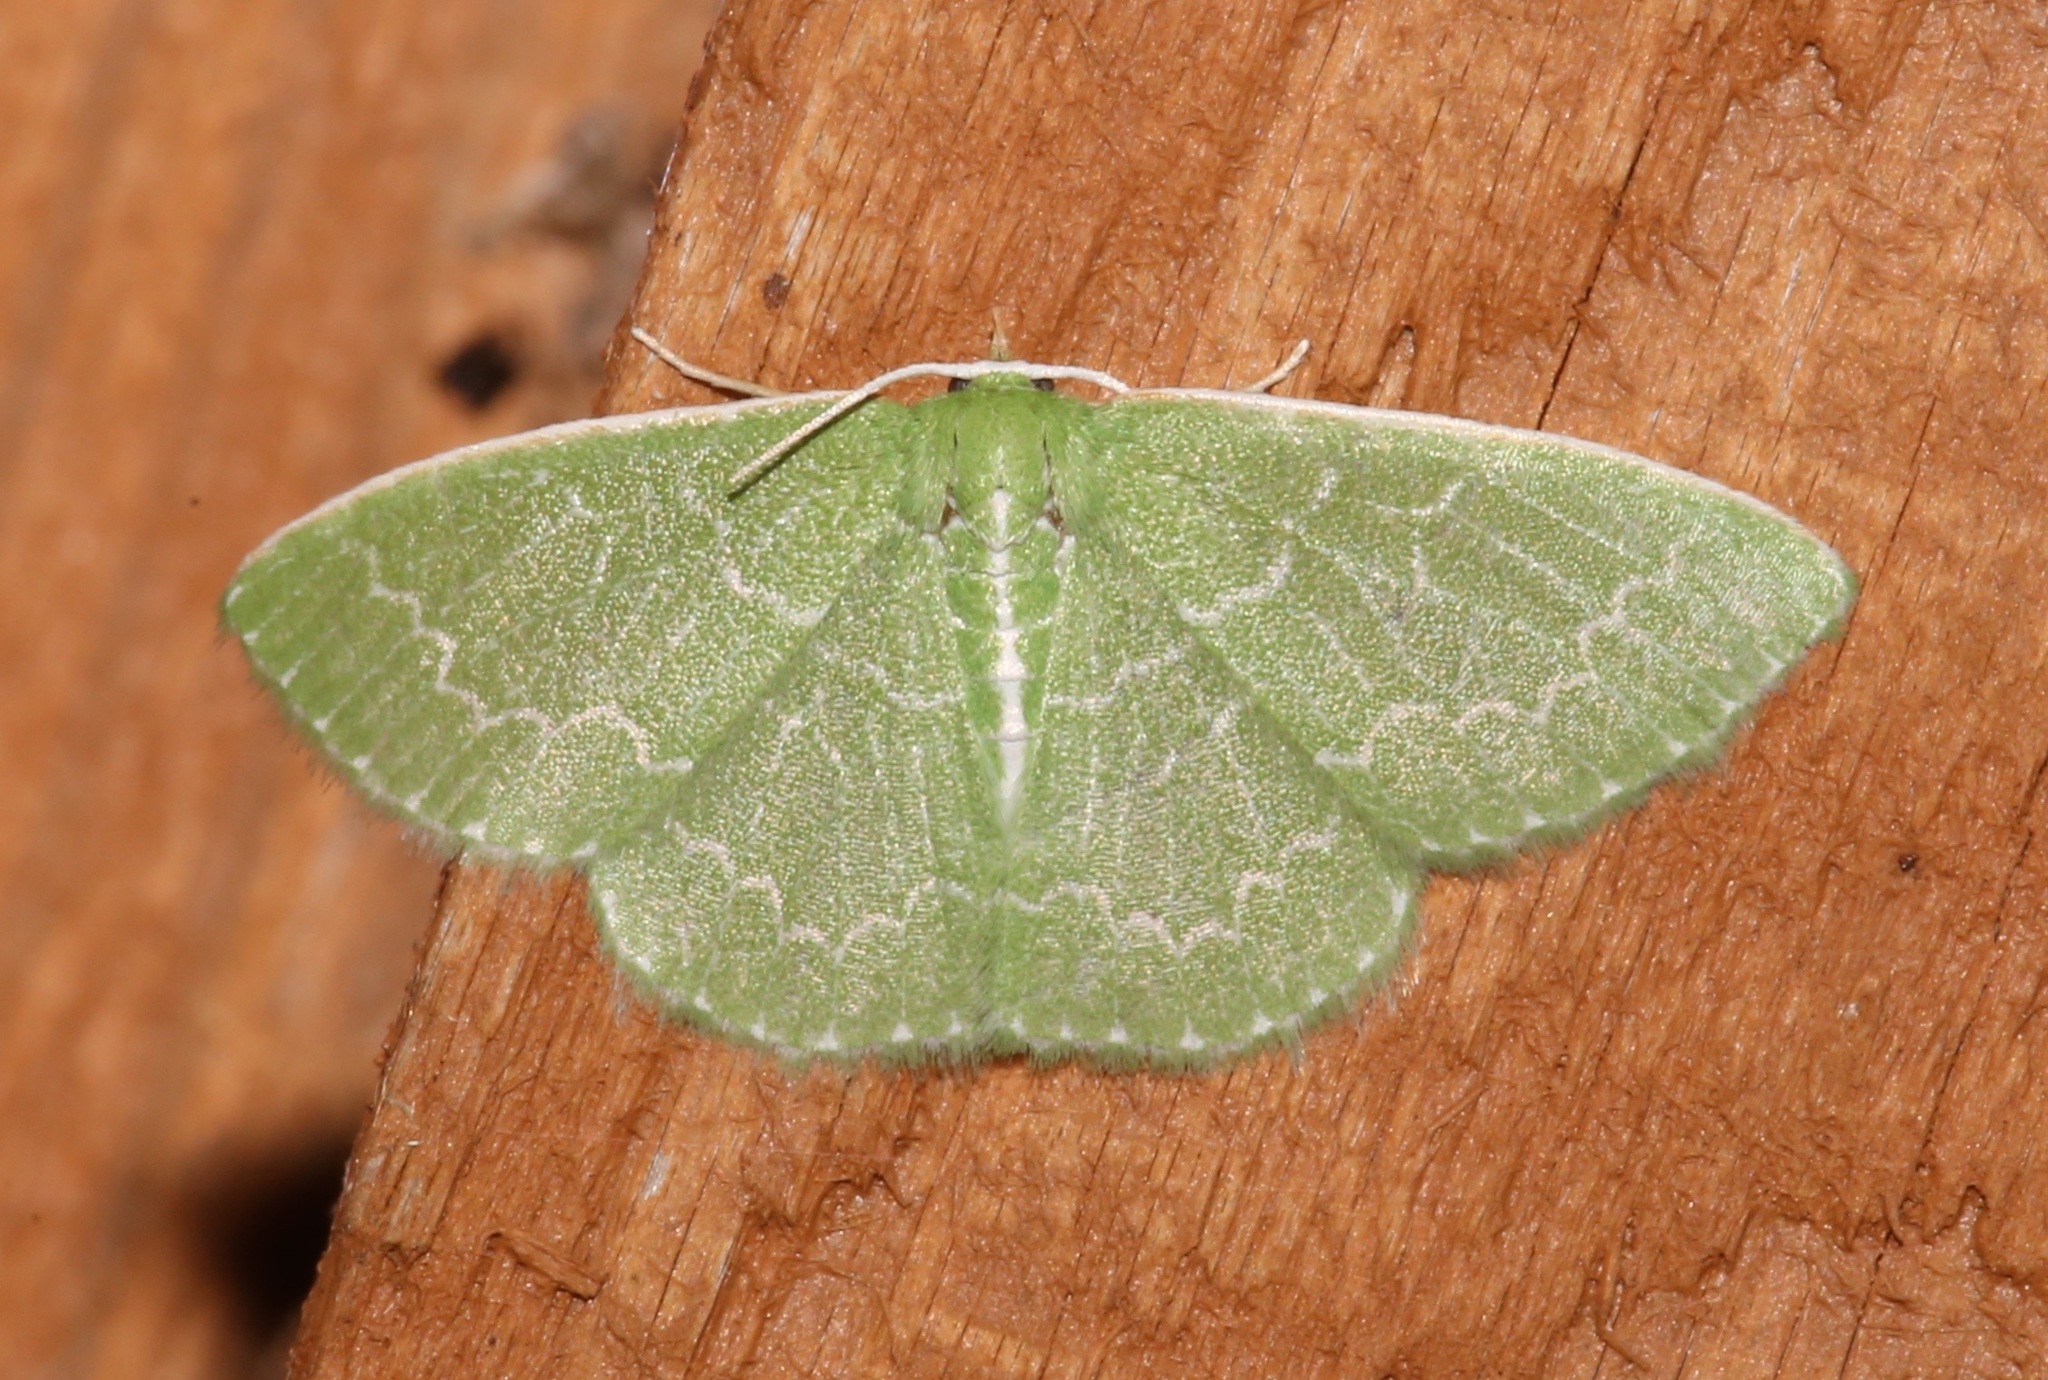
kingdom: Animalia
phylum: Arthropoda
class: Insecta
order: Lepidoptera
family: Geometridae
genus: Synchlora
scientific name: Synchlora frondaria
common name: Southern emerald
